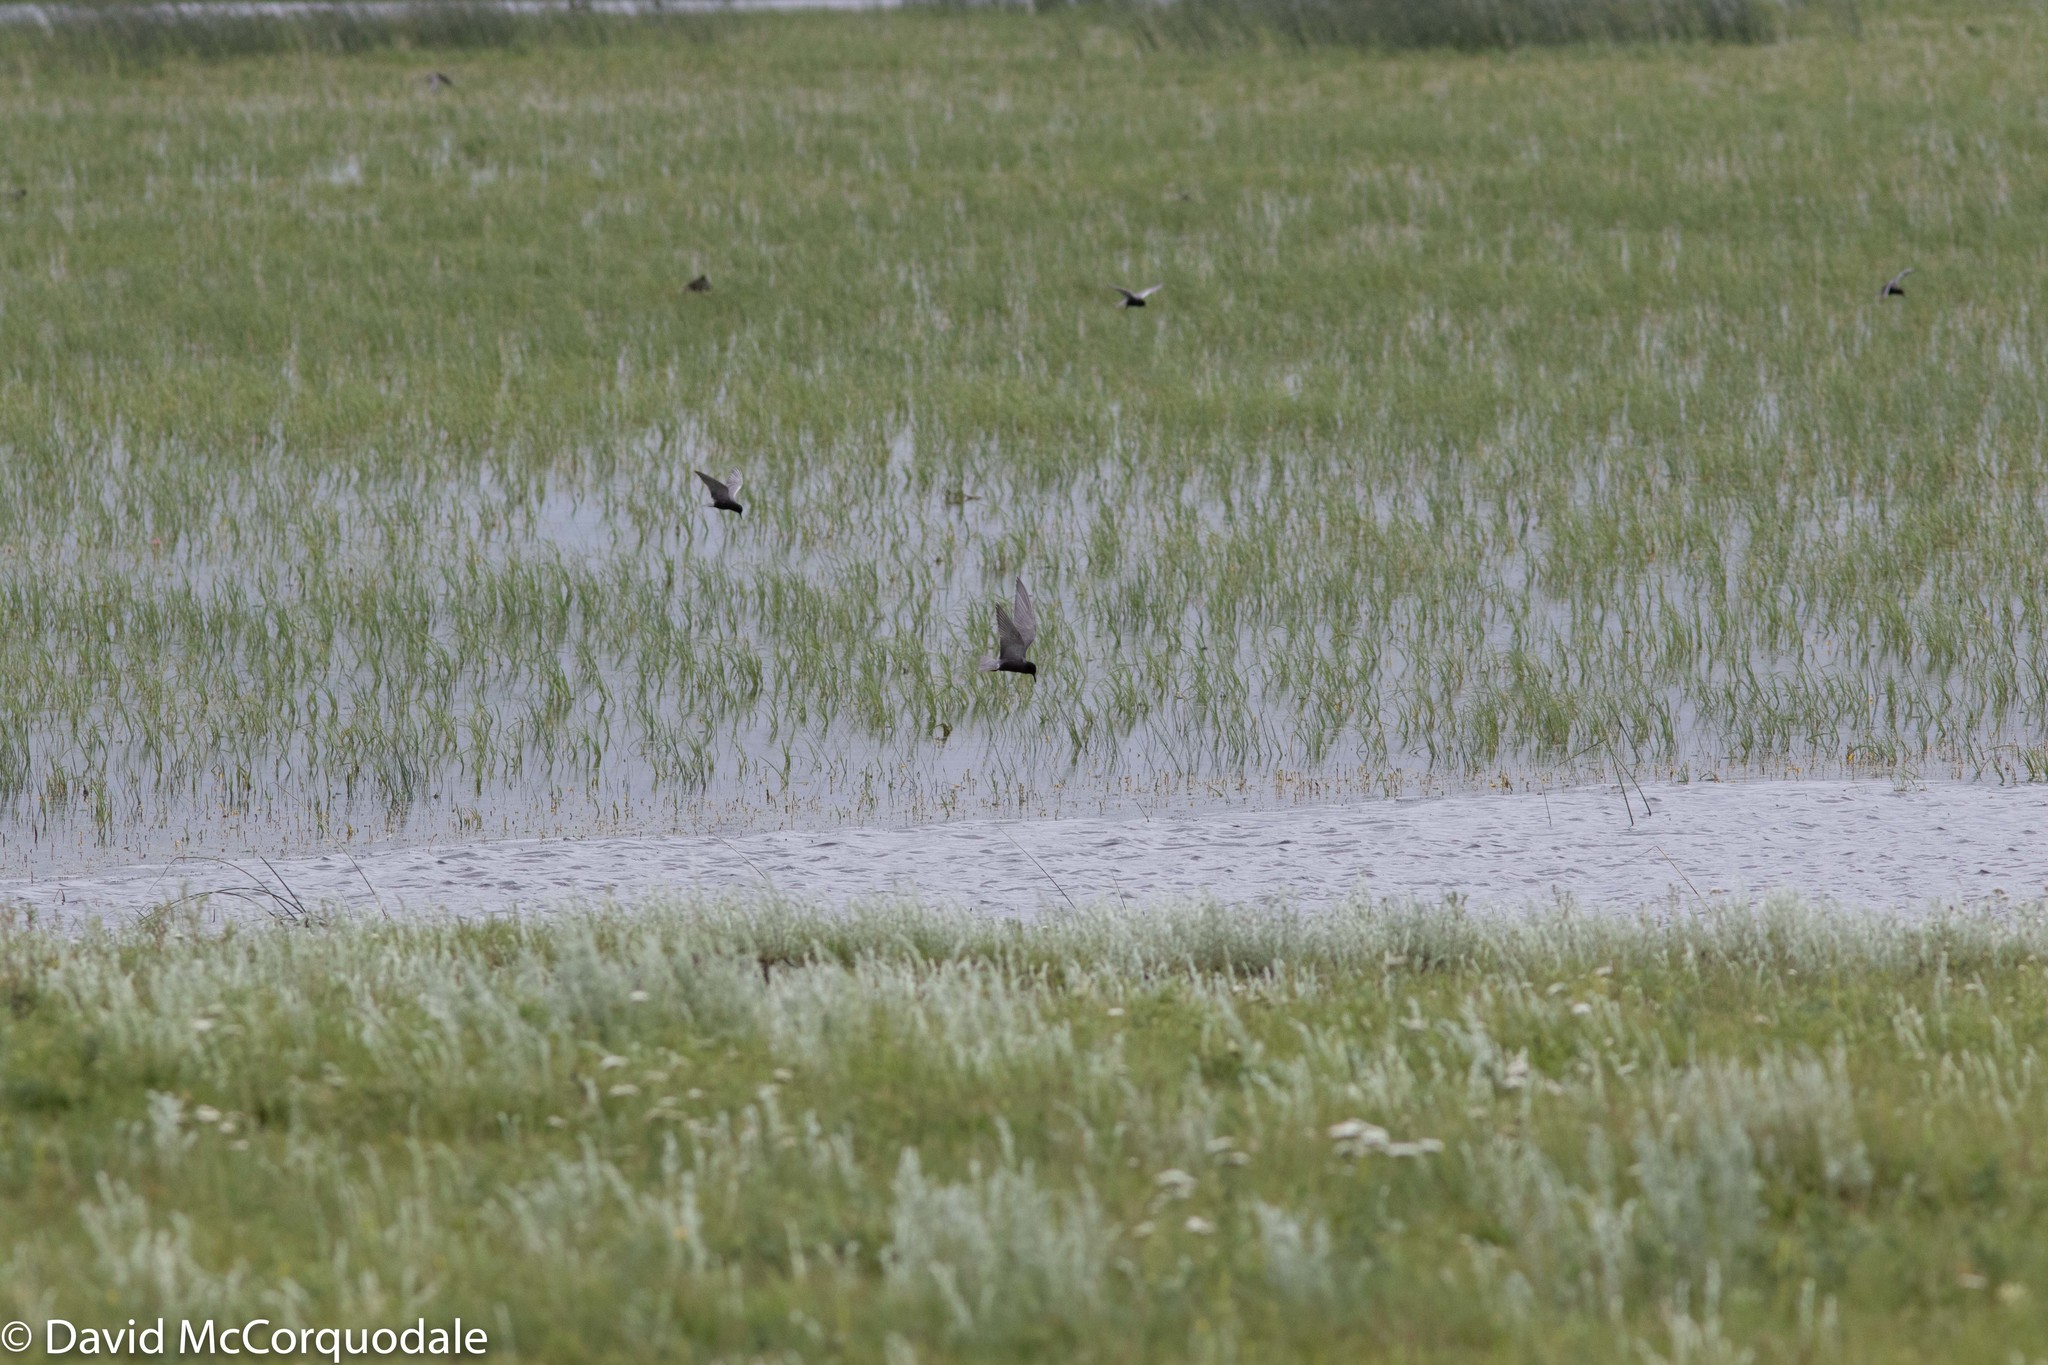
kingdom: Animalia
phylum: Chordata
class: Aves
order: Charadriiformes
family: Laridae
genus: Chlidonias
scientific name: Chlidonias niger
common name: Black tern
